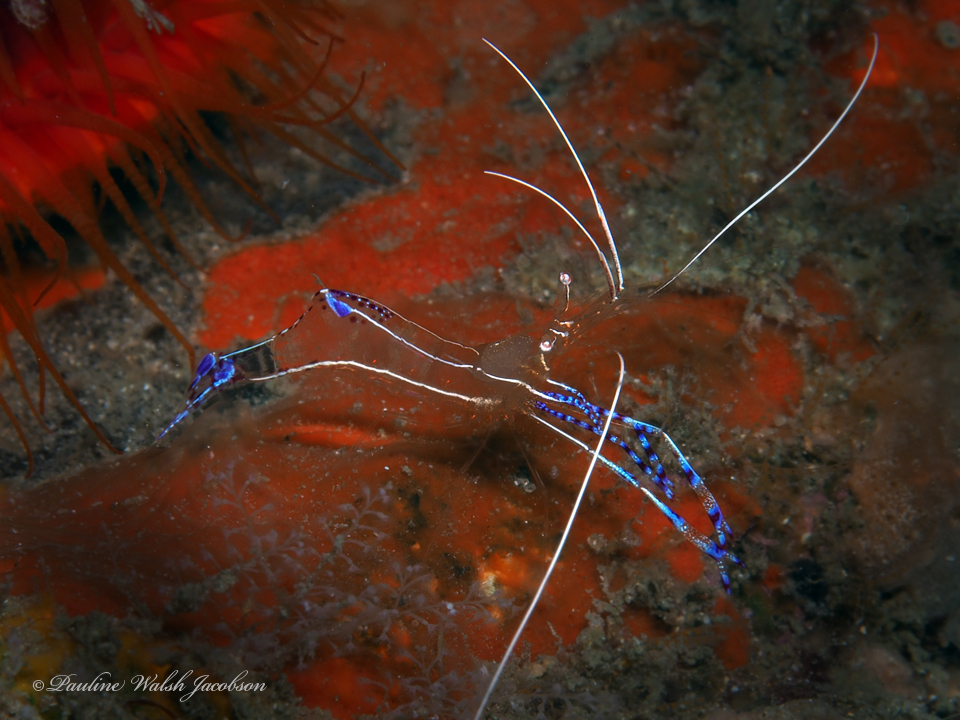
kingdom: Animalia
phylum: Arthropoda
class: Malacostraca
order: Decapoda
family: Palaemonidae
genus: Ancylomenes
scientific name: Ancylomenes pedersoni
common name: Pederson's cleaning shrimp
